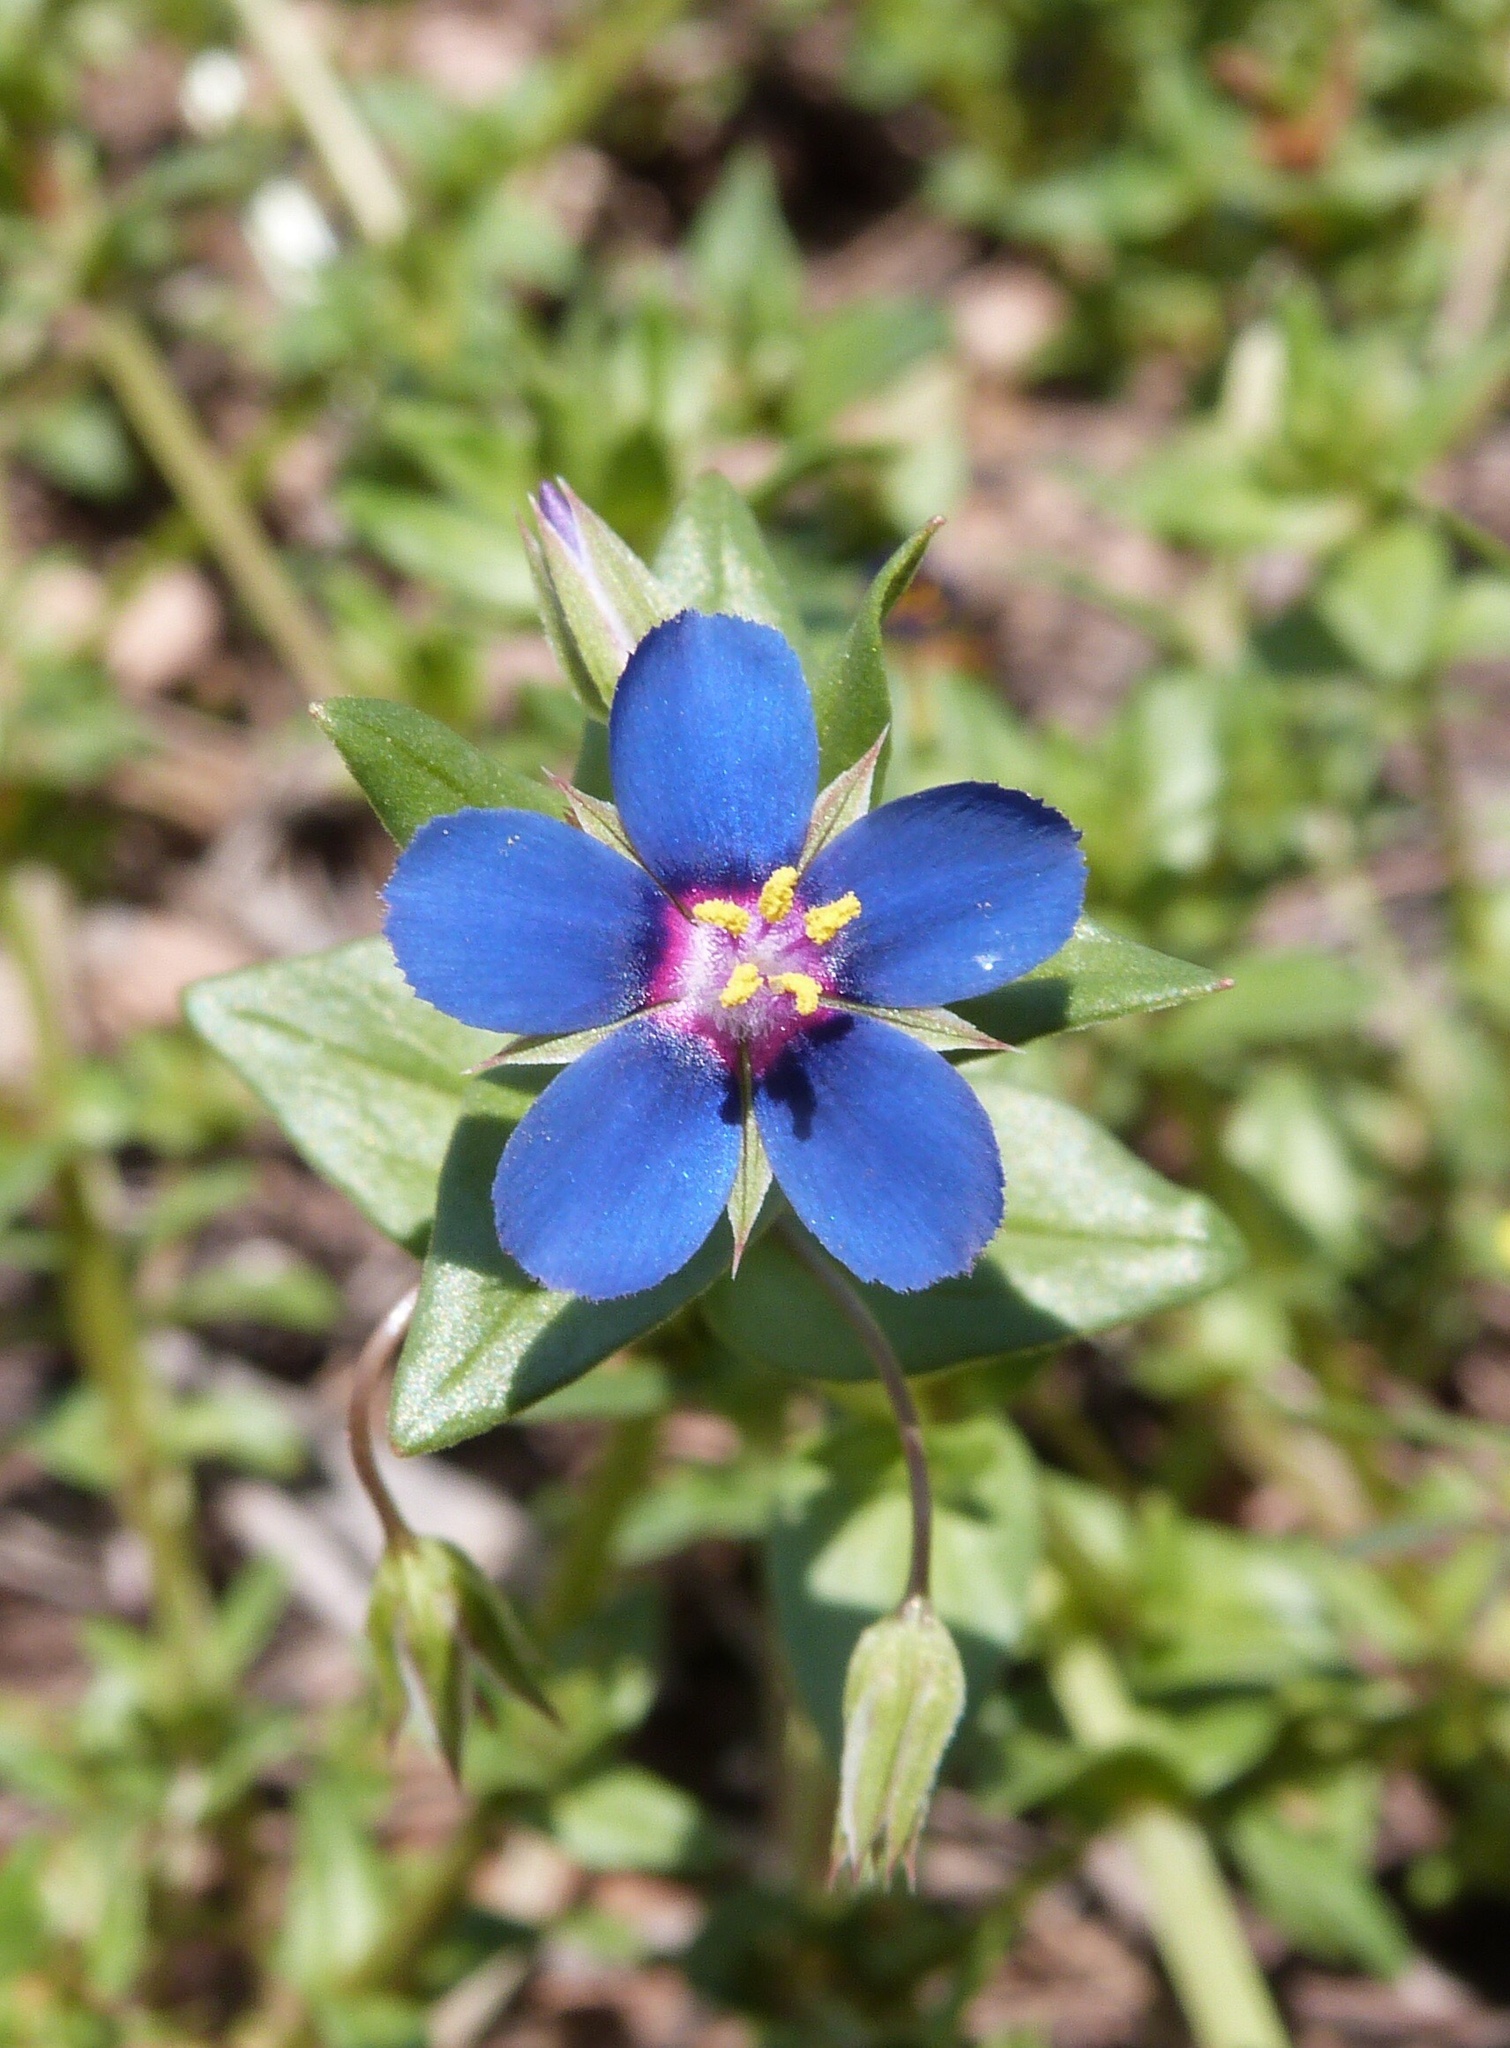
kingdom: Plantae
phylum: Tracheophyta
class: Magnoliopsida
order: Ericales
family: Primulaceae
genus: Lysimachia
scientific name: Lysimachia arvensis
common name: Scarlet pimpernel
